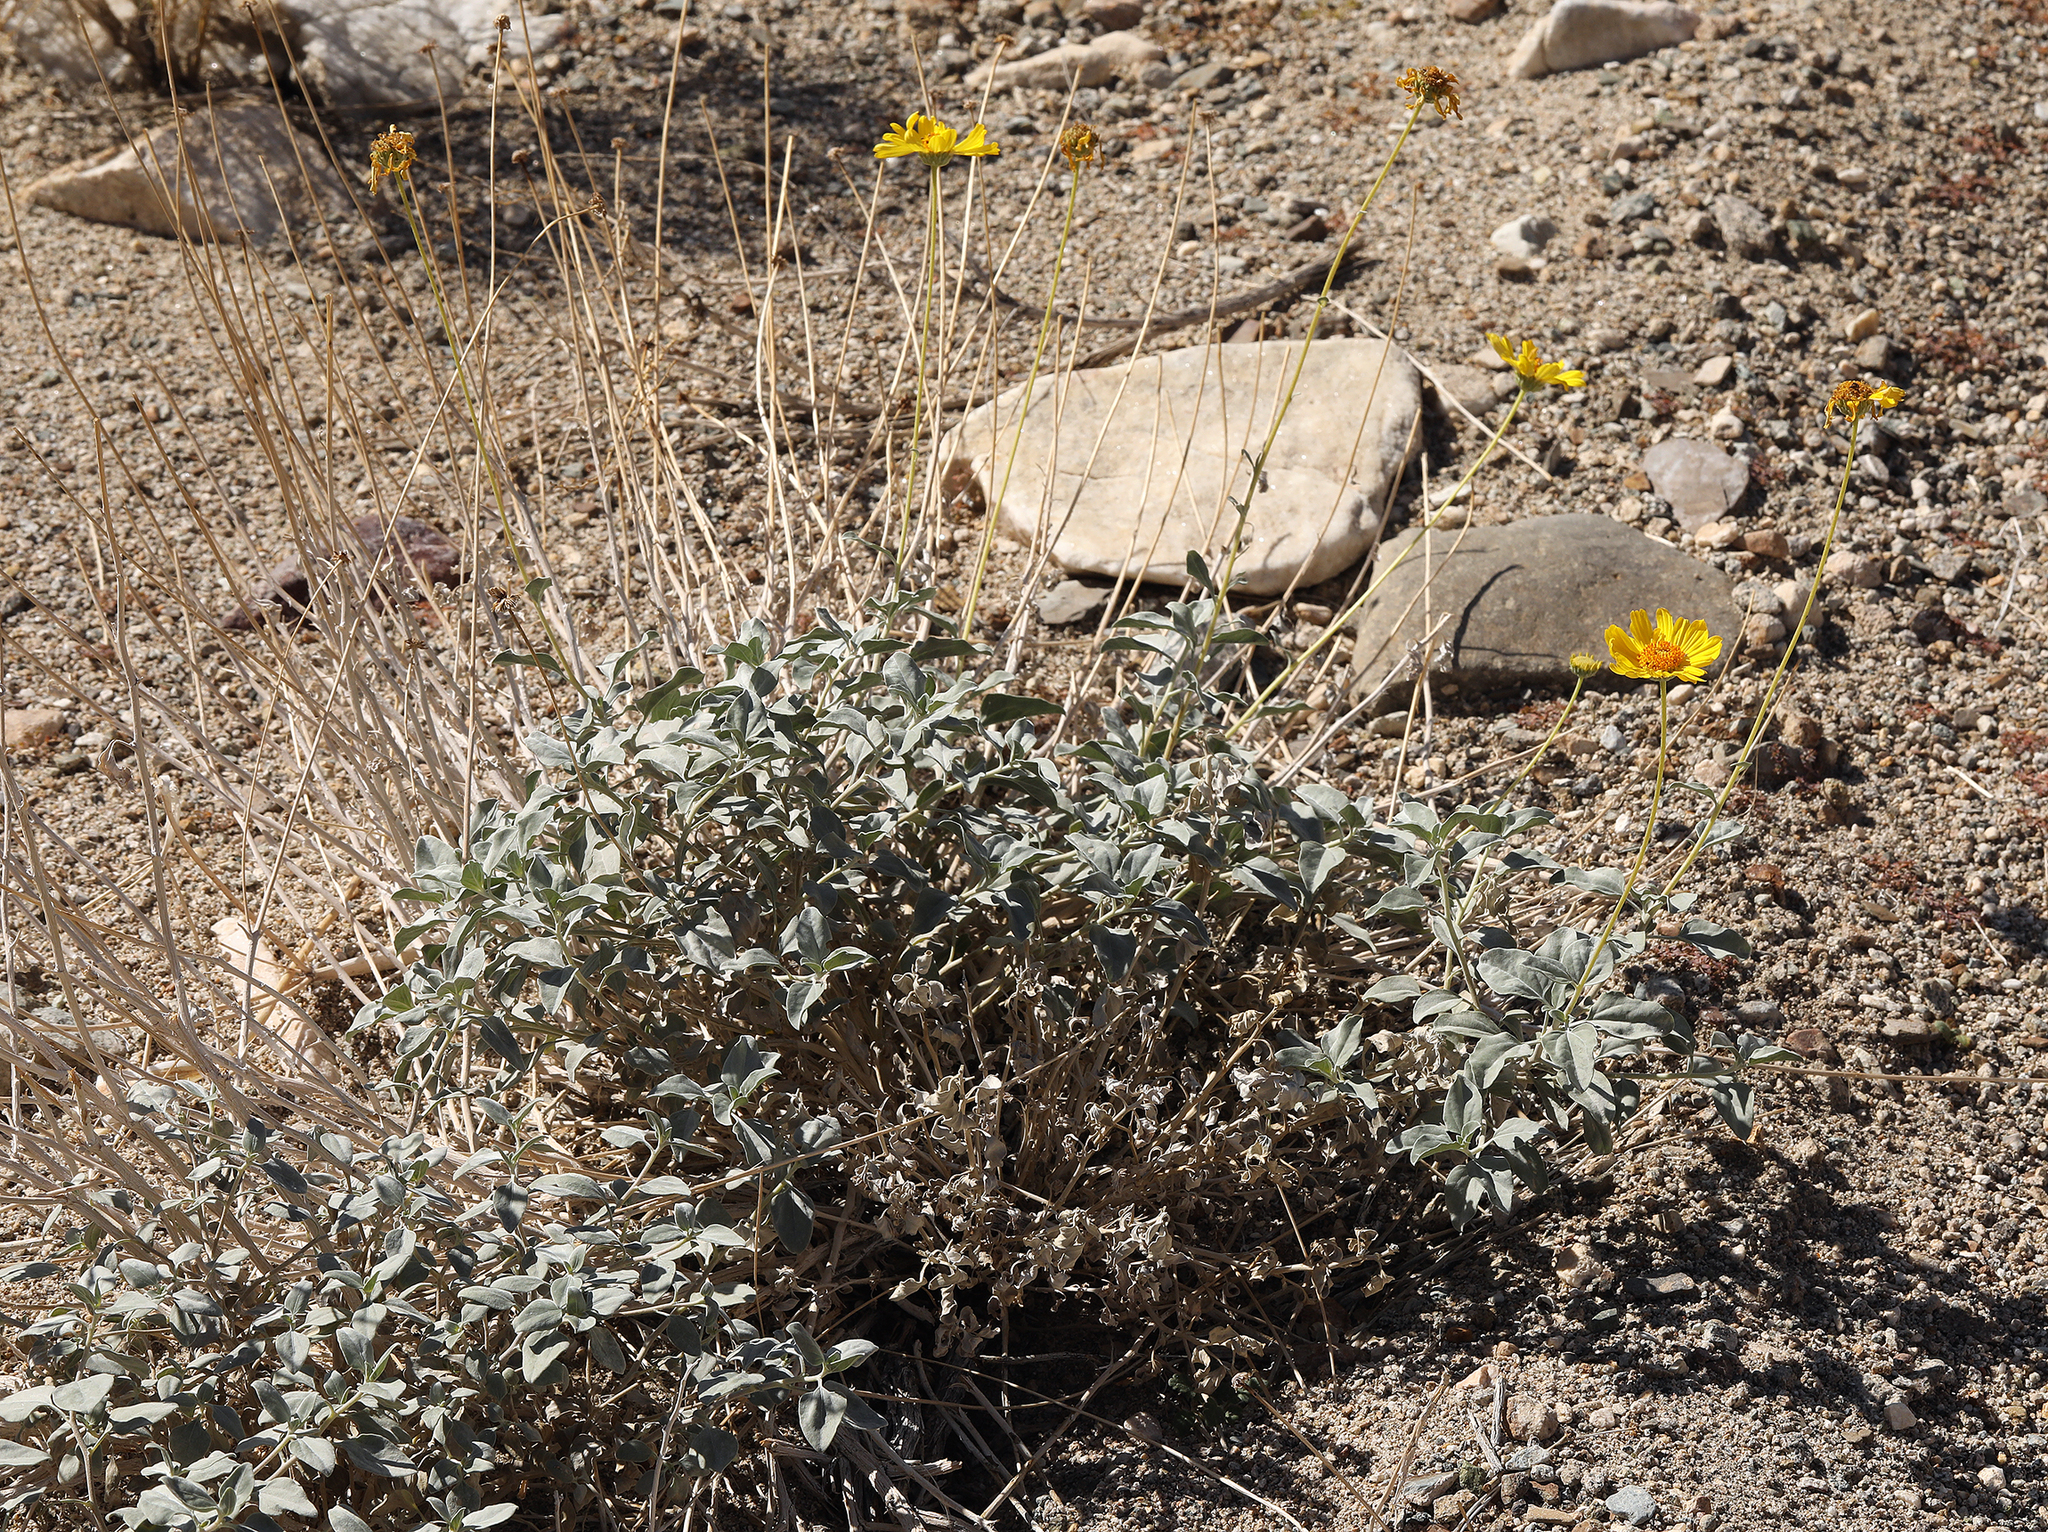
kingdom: Plantae
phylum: Tracheophyta
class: Magnoliopsida
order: Asterales
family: Asteraceae
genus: Encelia
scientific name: Encelia actoni
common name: Acton encelia
